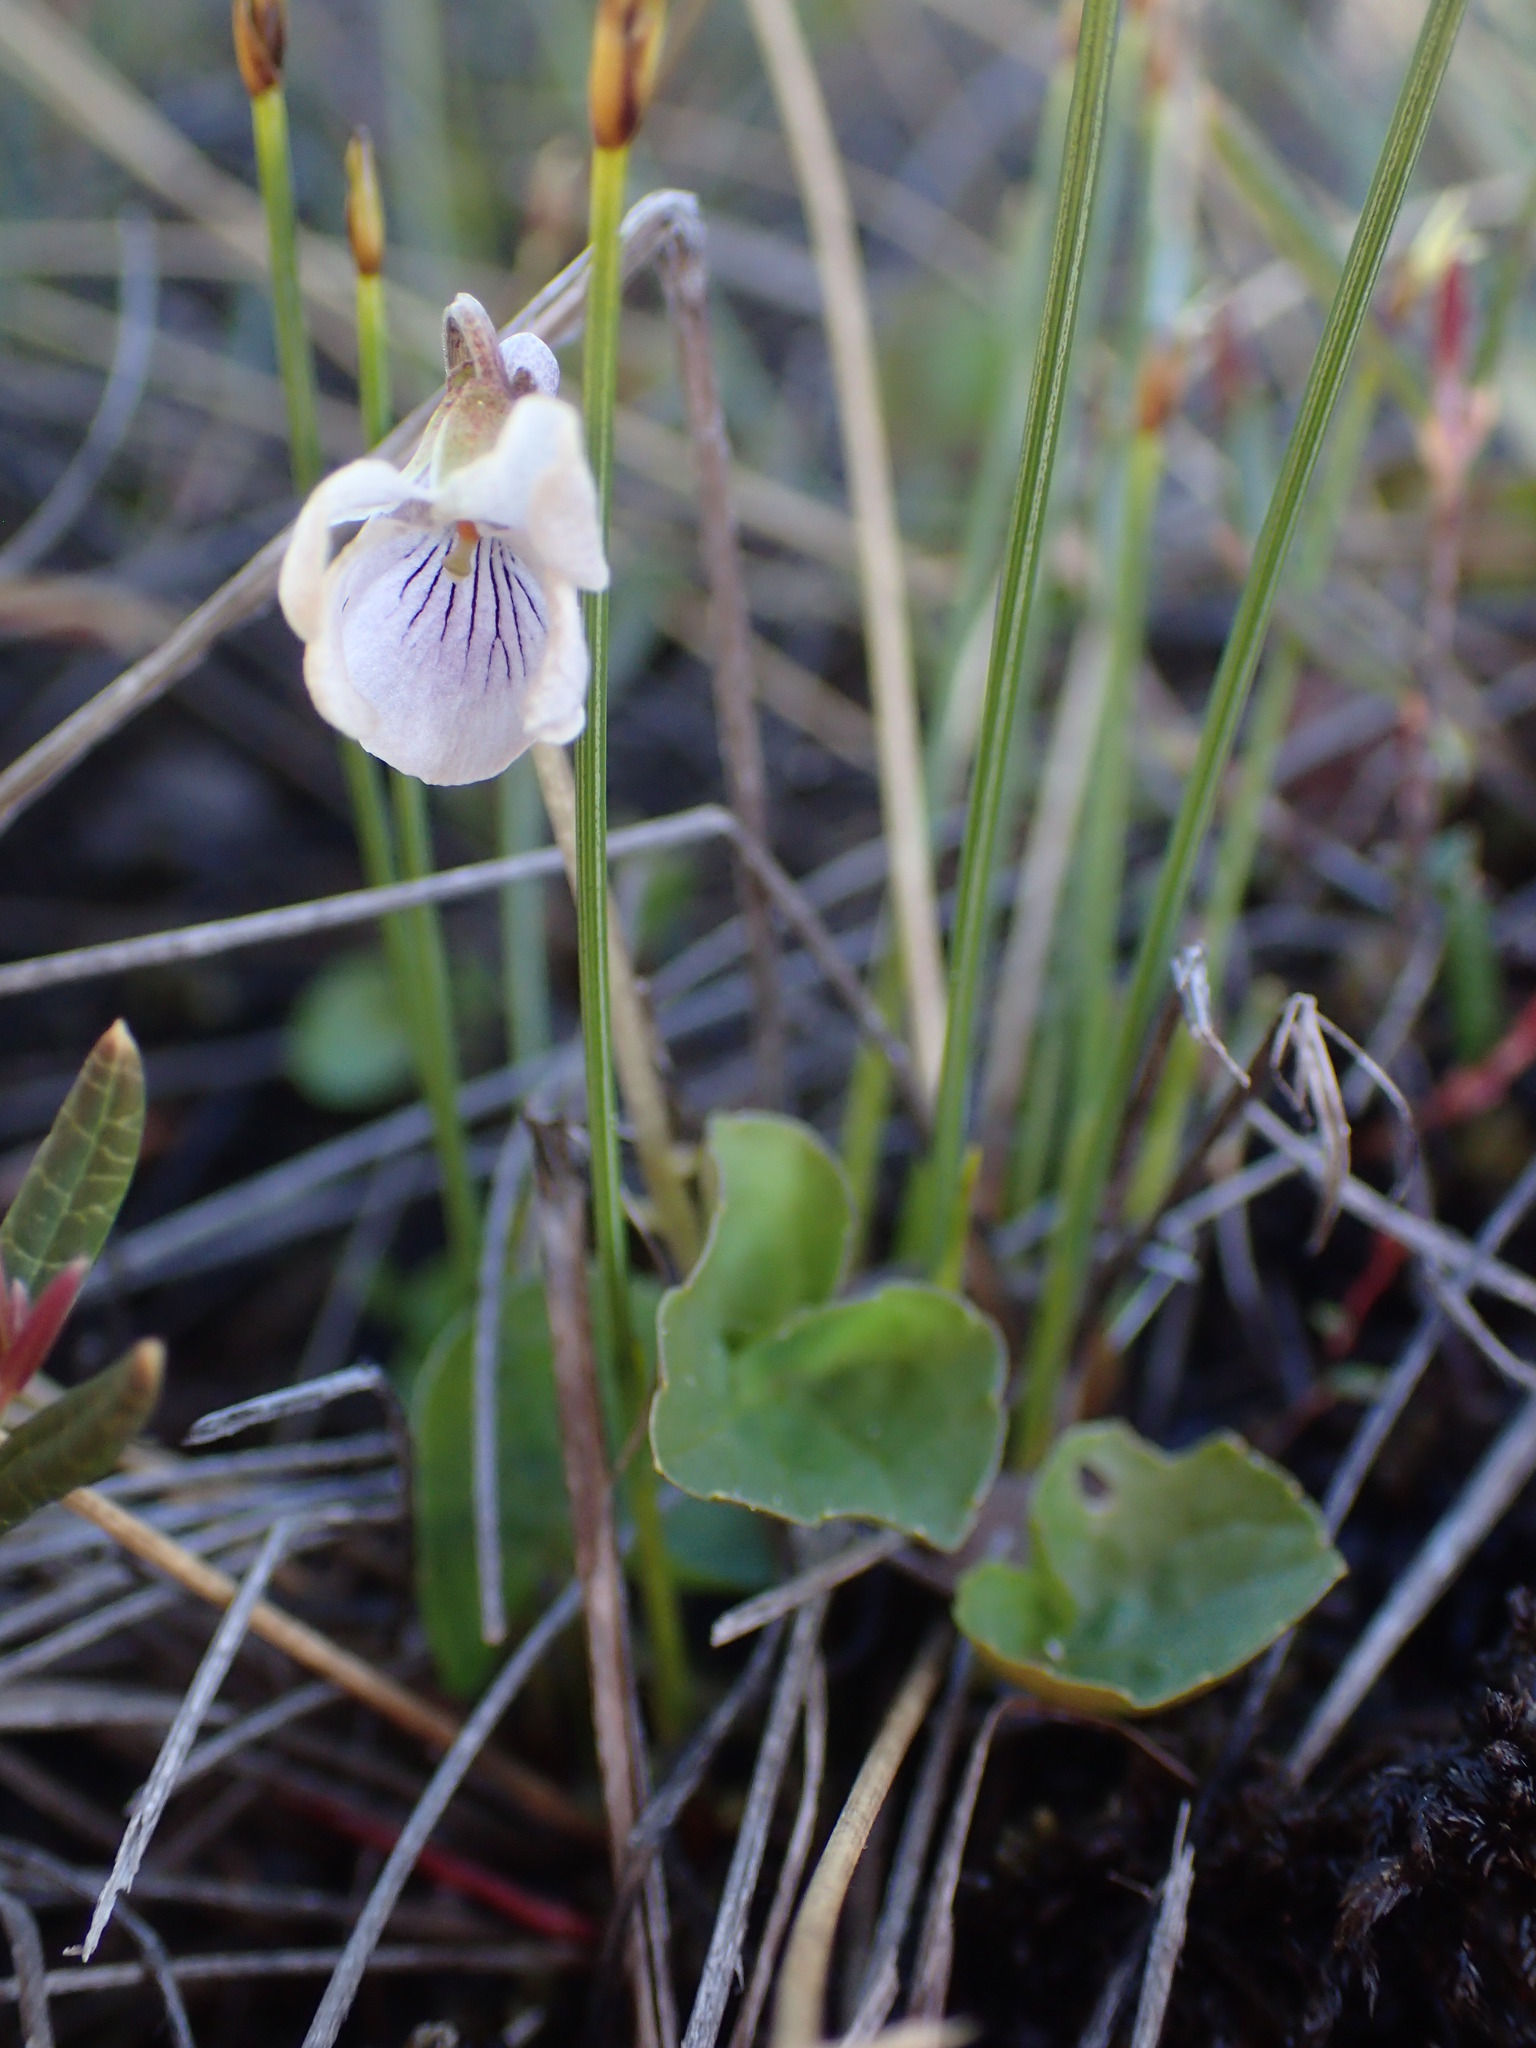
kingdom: Plantae
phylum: Tracheophyta
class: Magnoliopsida
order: Malpighiales
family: Violaceae
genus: Viola
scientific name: Viola epipsila
